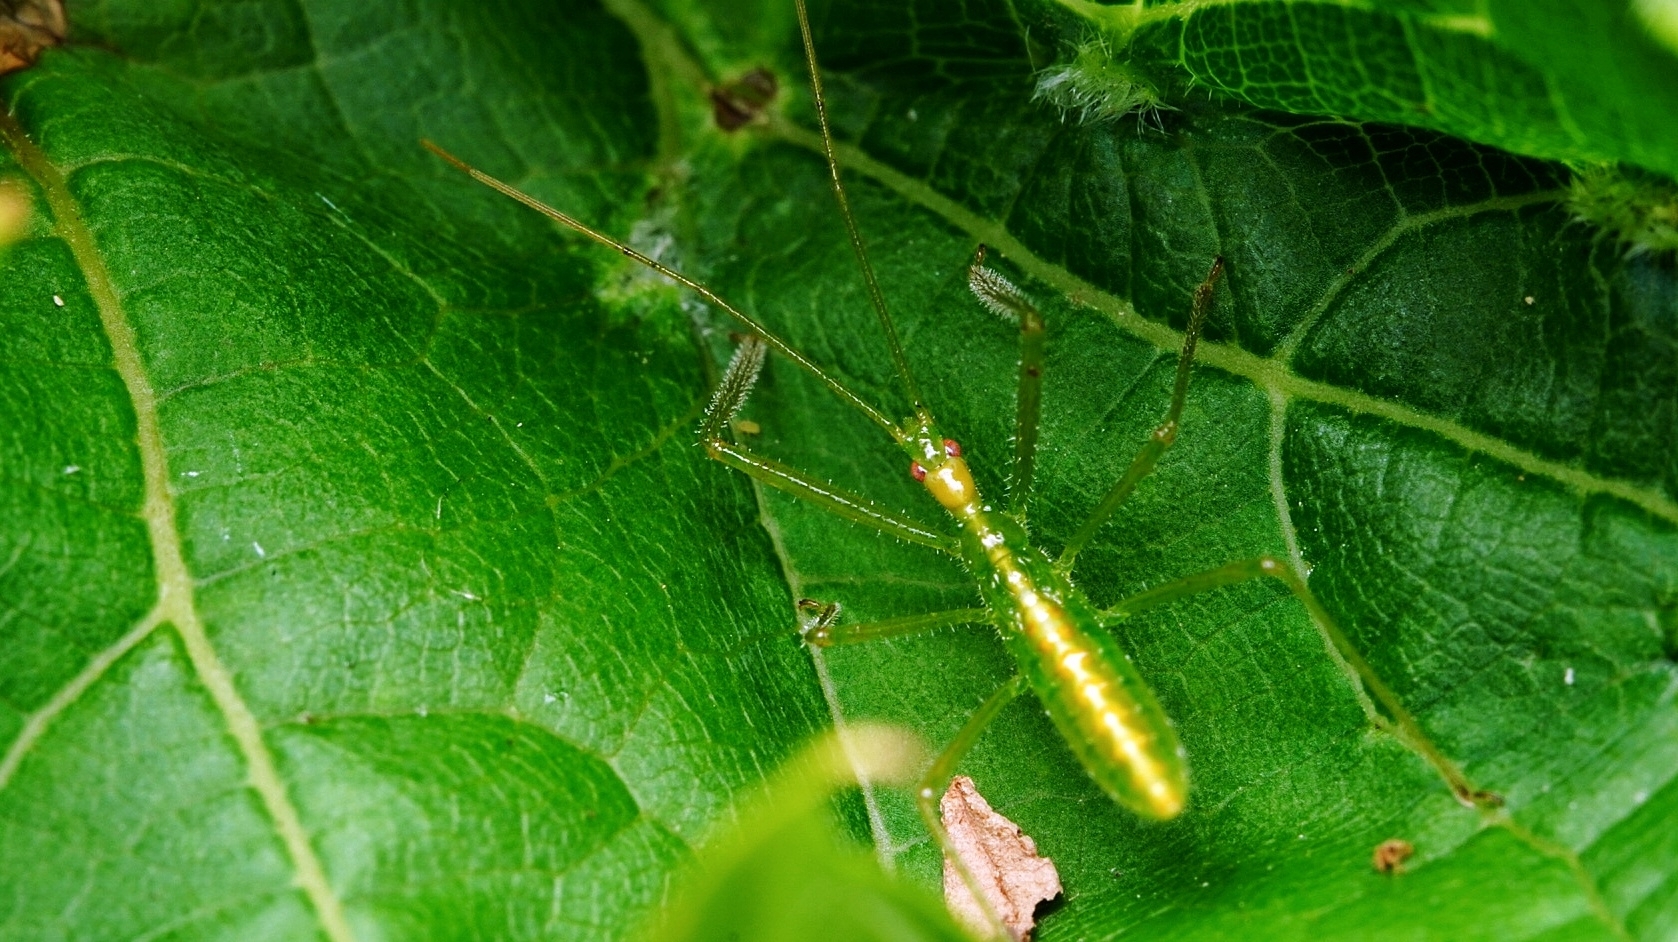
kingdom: Animalia
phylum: Arthropoda
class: Insecta
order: Hemiptera
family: Reduviidae
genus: Zelus
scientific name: Zelus luridus
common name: Pale green assassin bug
